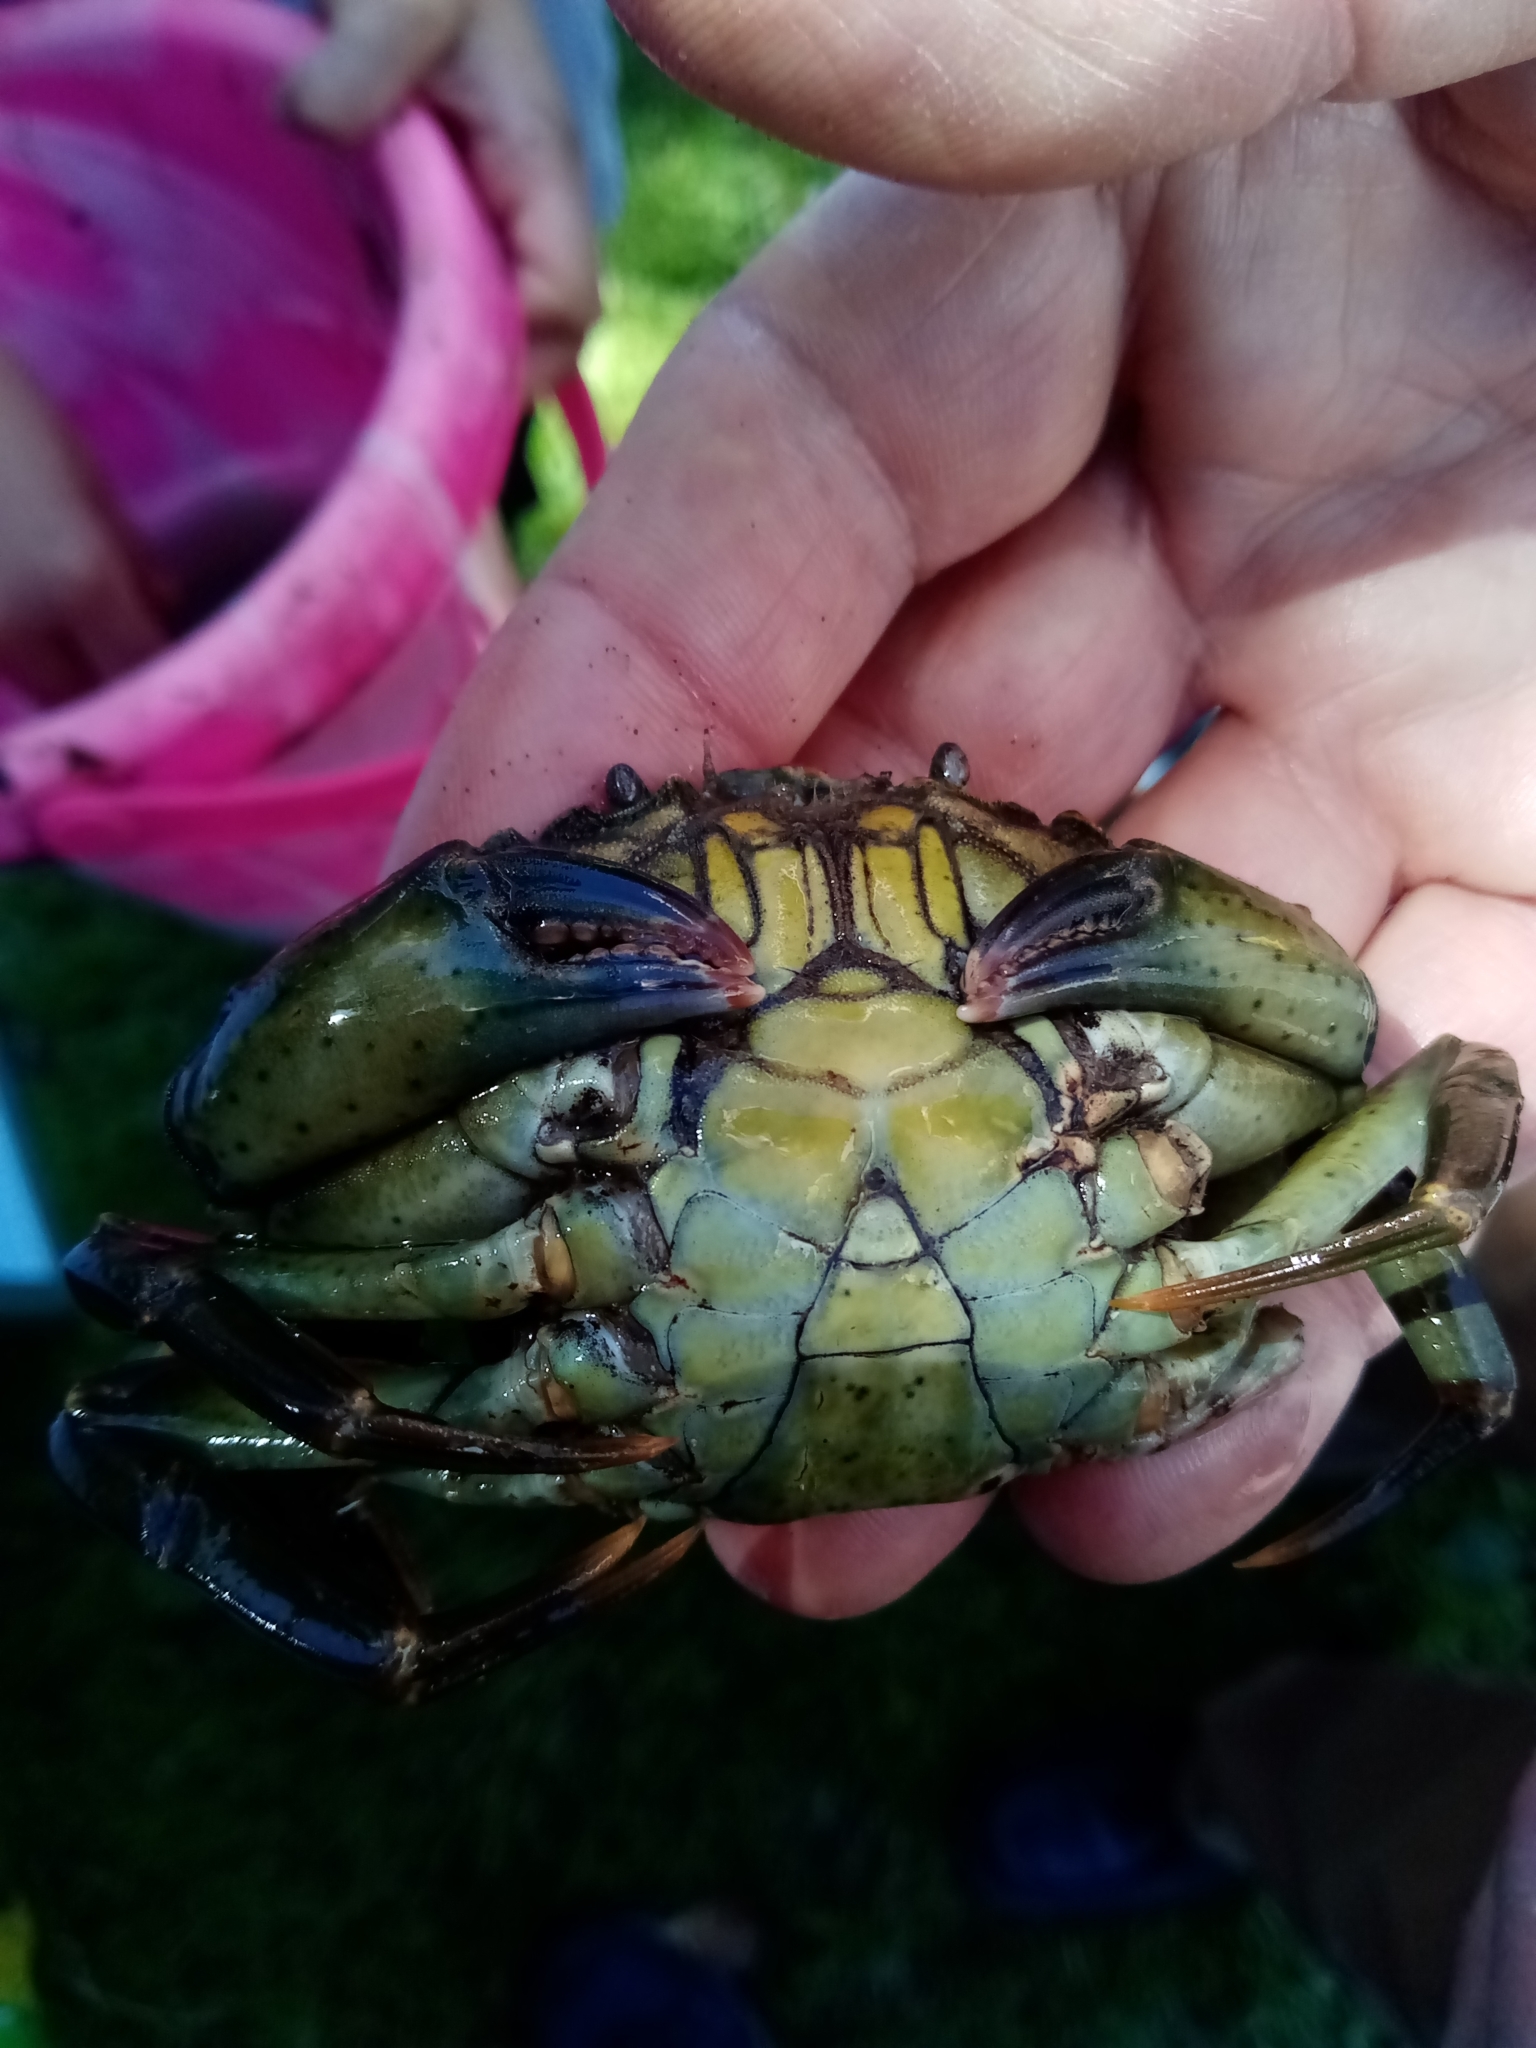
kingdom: Animalia
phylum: Arthropoda
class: Malacostraca
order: Decapoda
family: Carcinidae
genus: Carcinus
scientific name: Carcinus maenas
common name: European green crab
